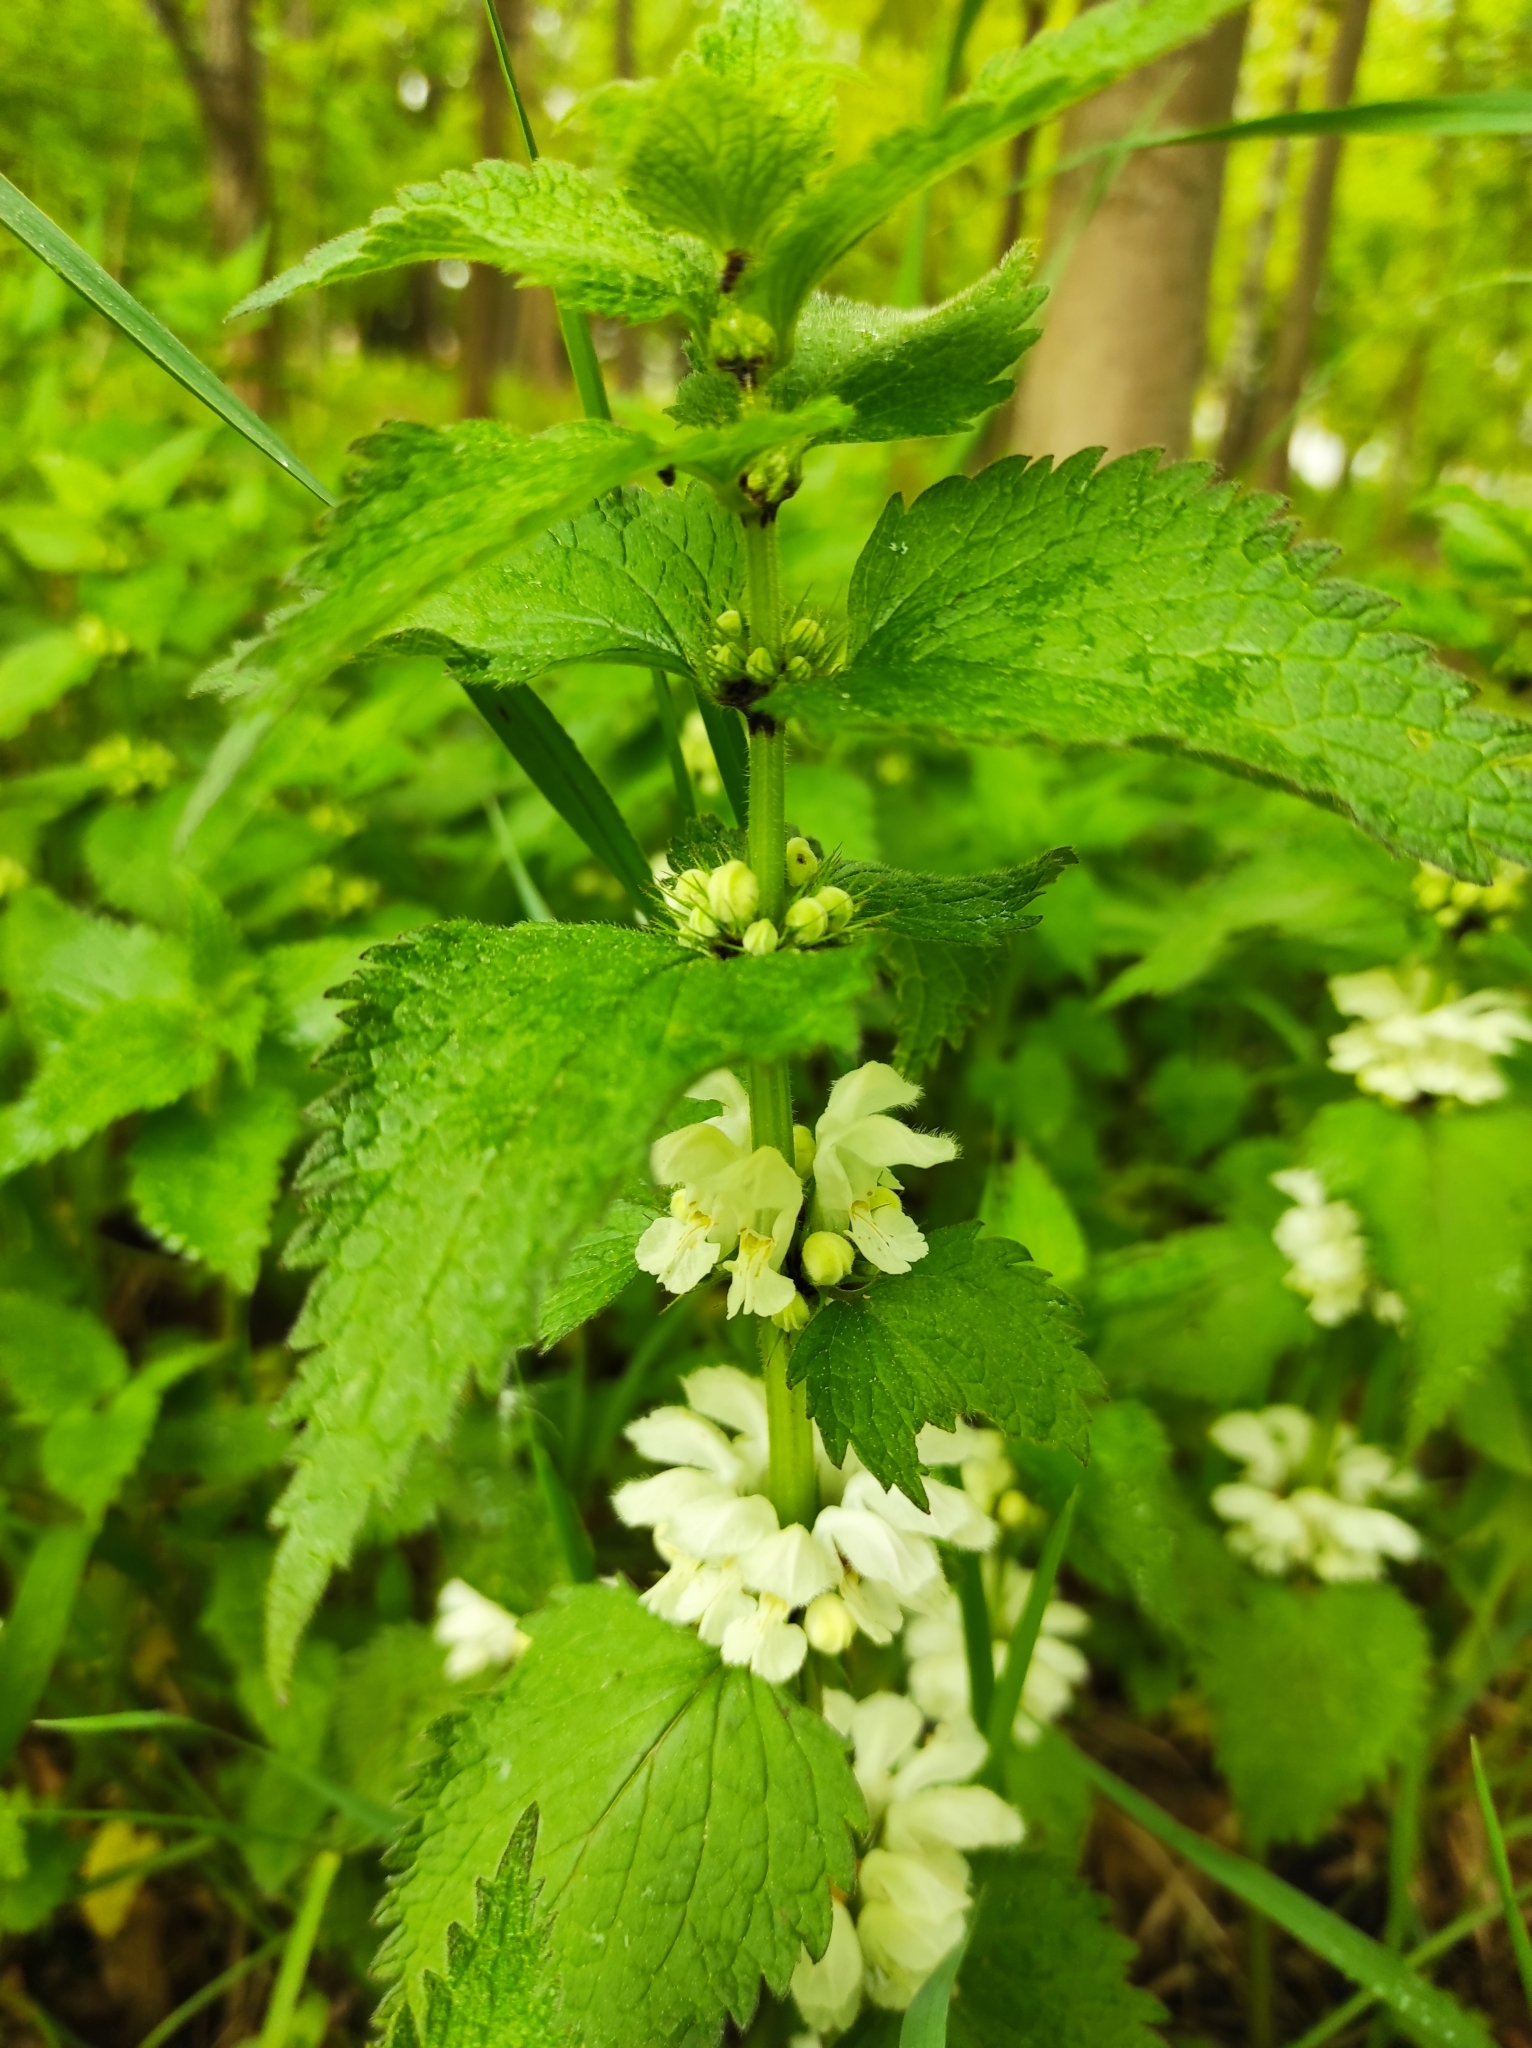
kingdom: Plantae
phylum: Tracheophyta
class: Magnoliopsida
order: Lamiales
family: Lamiaceae
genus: Lamium
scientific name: Lamium album
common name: White dead-nettle
